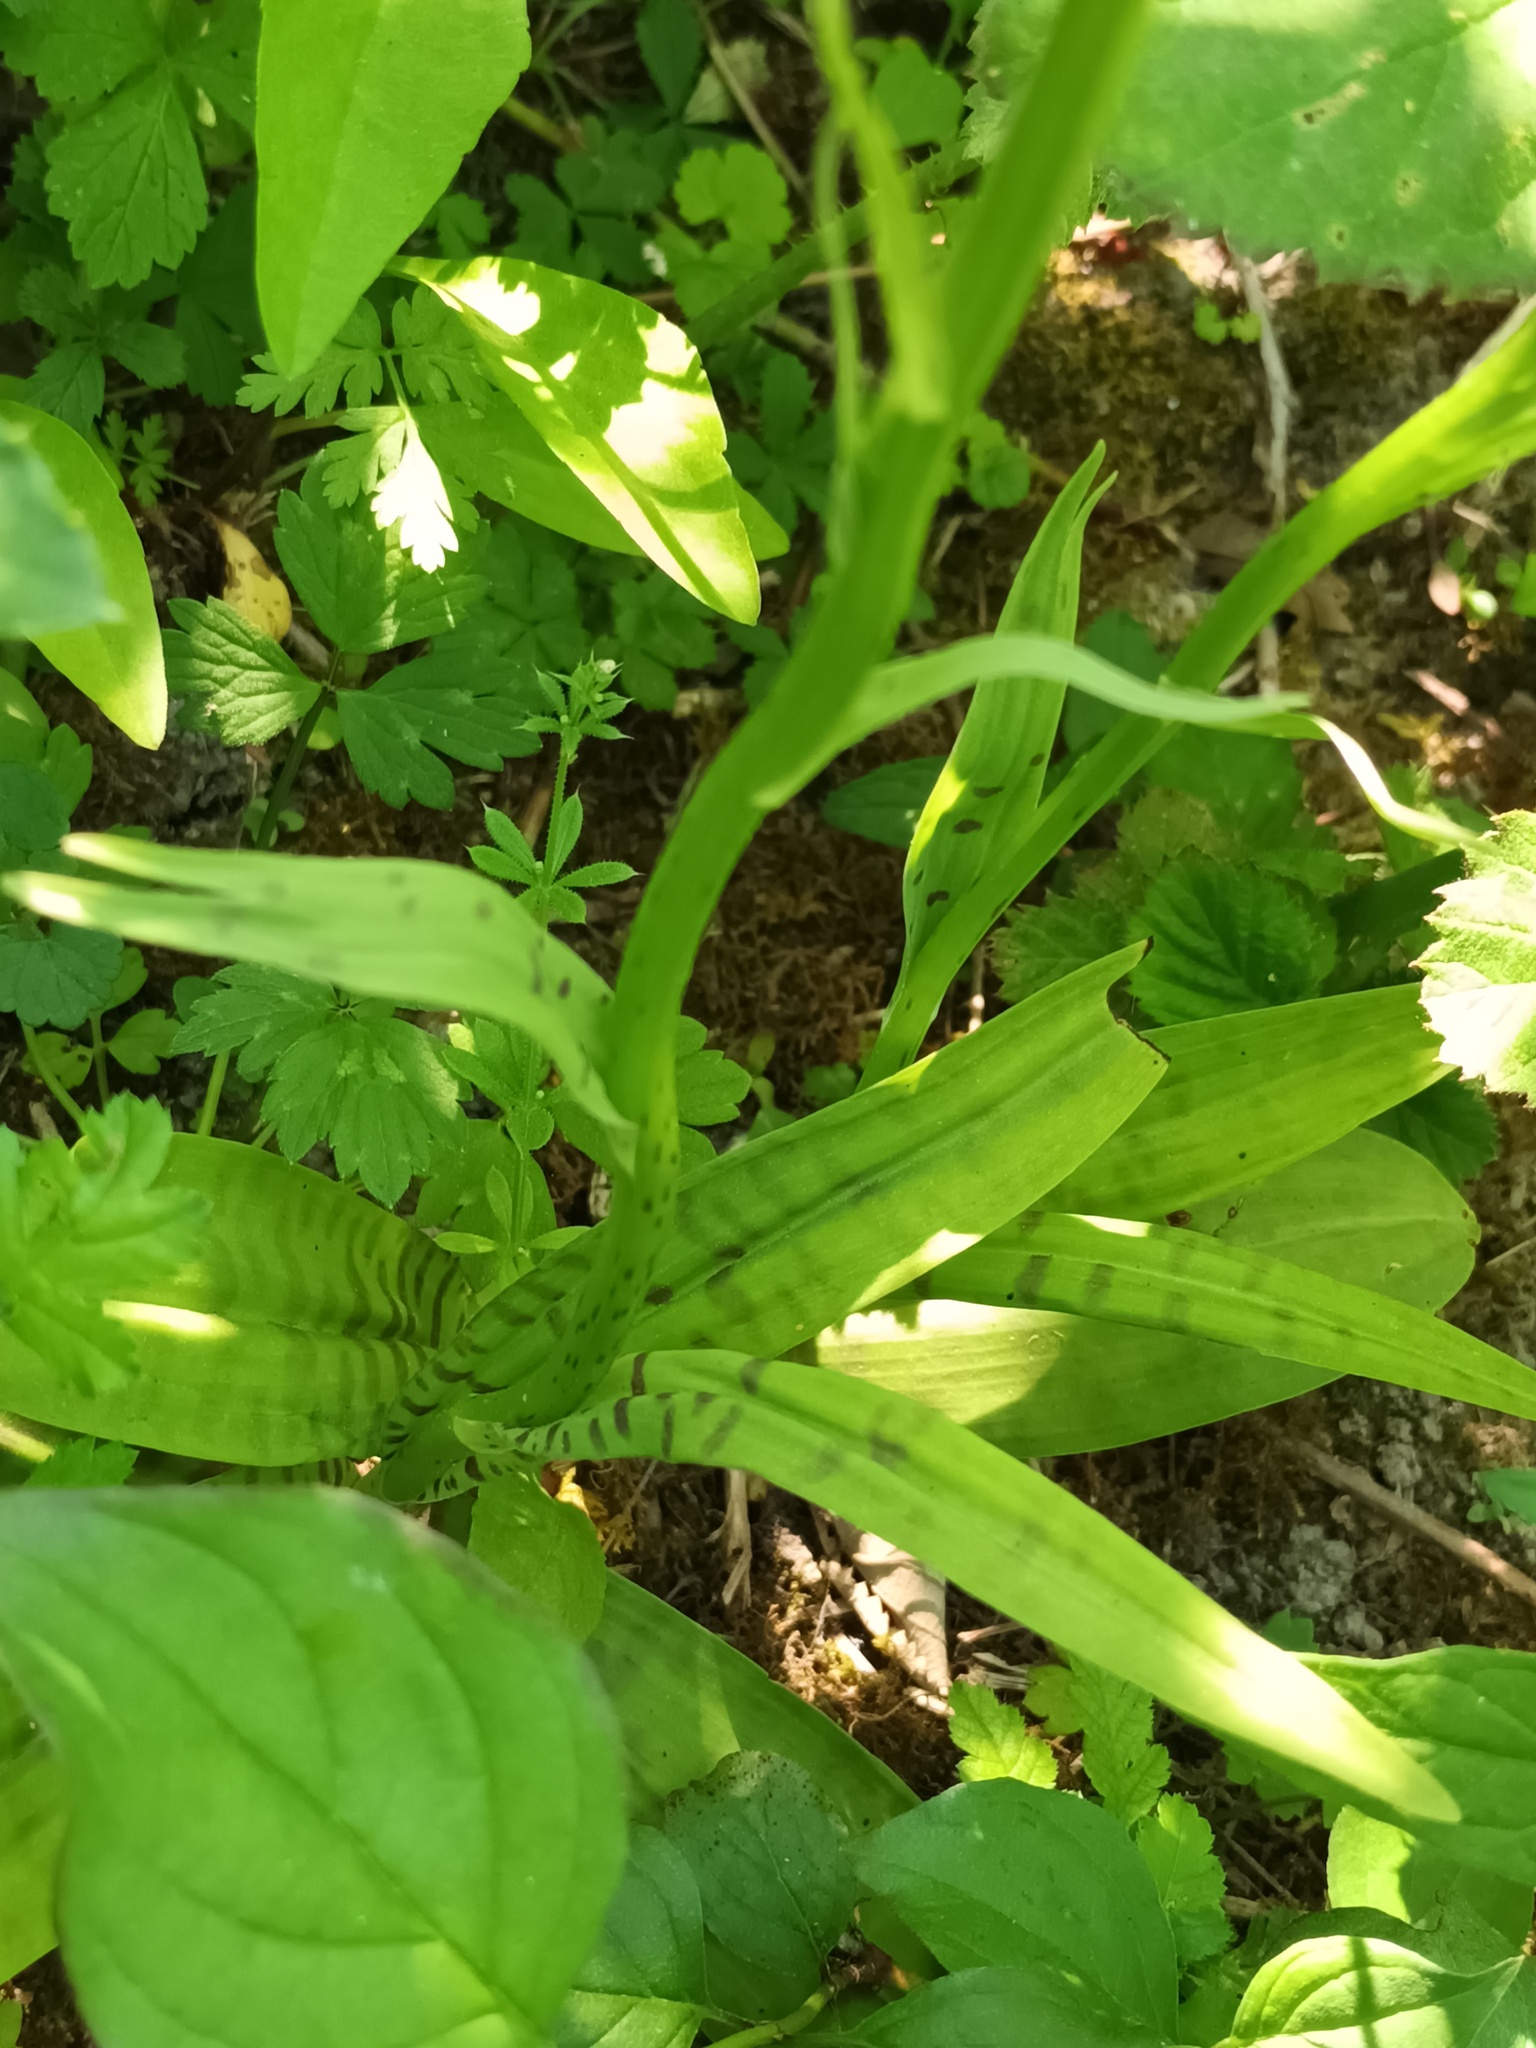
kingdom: Plantae
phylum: Tracheophyta
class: Liliopsida
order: Asparagales
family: Orchidaceae
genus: Dactylorhiza
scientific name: Dactylorhiza maculata
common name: Heath spotted-orchid
